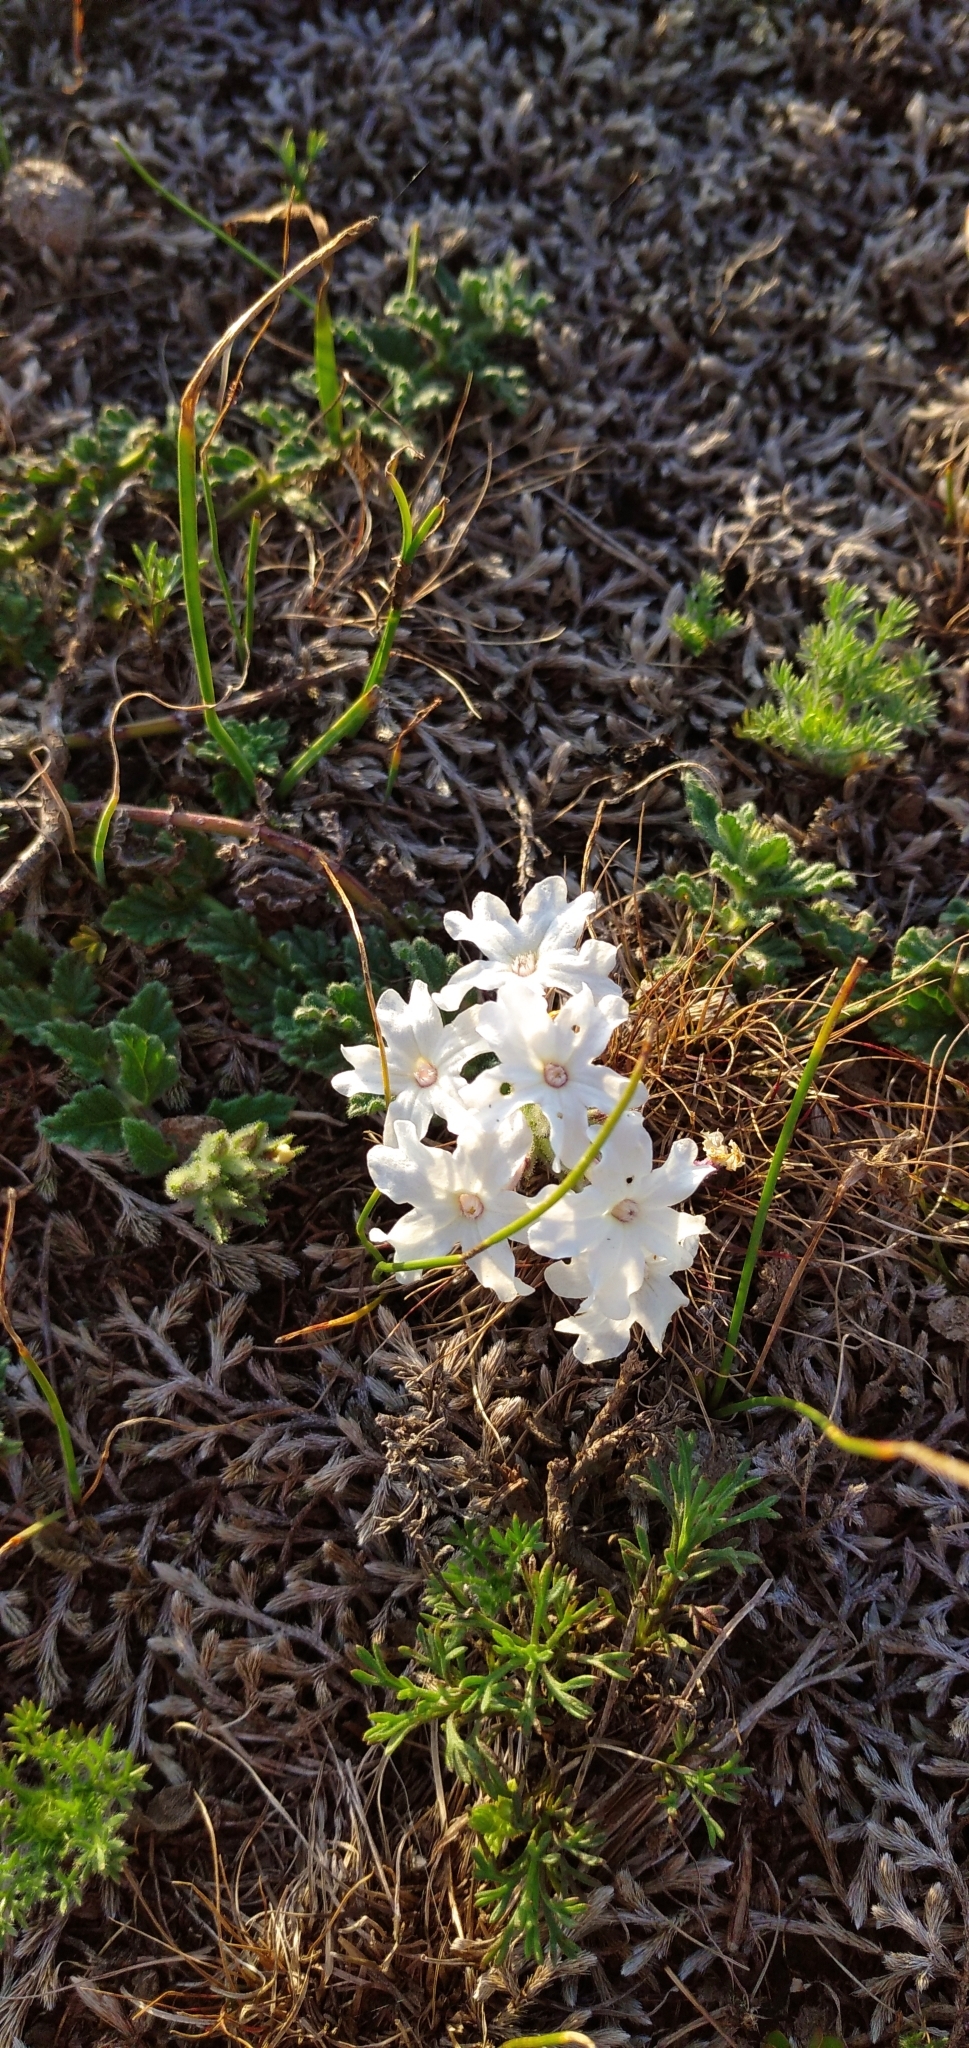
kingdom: Plantae
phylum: Tracheophyta
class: Magnoliopsida
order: Lamiales
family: Verbenaceae
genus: Verbena
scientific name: Verbena platensis
